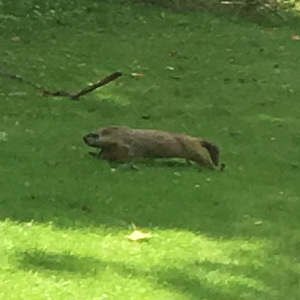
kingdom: Animalia
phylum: Chordata
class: Mammalia
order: Rodentia
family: Sciuridae
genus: Marmota
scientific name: Marmota monax
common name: Groundhog
